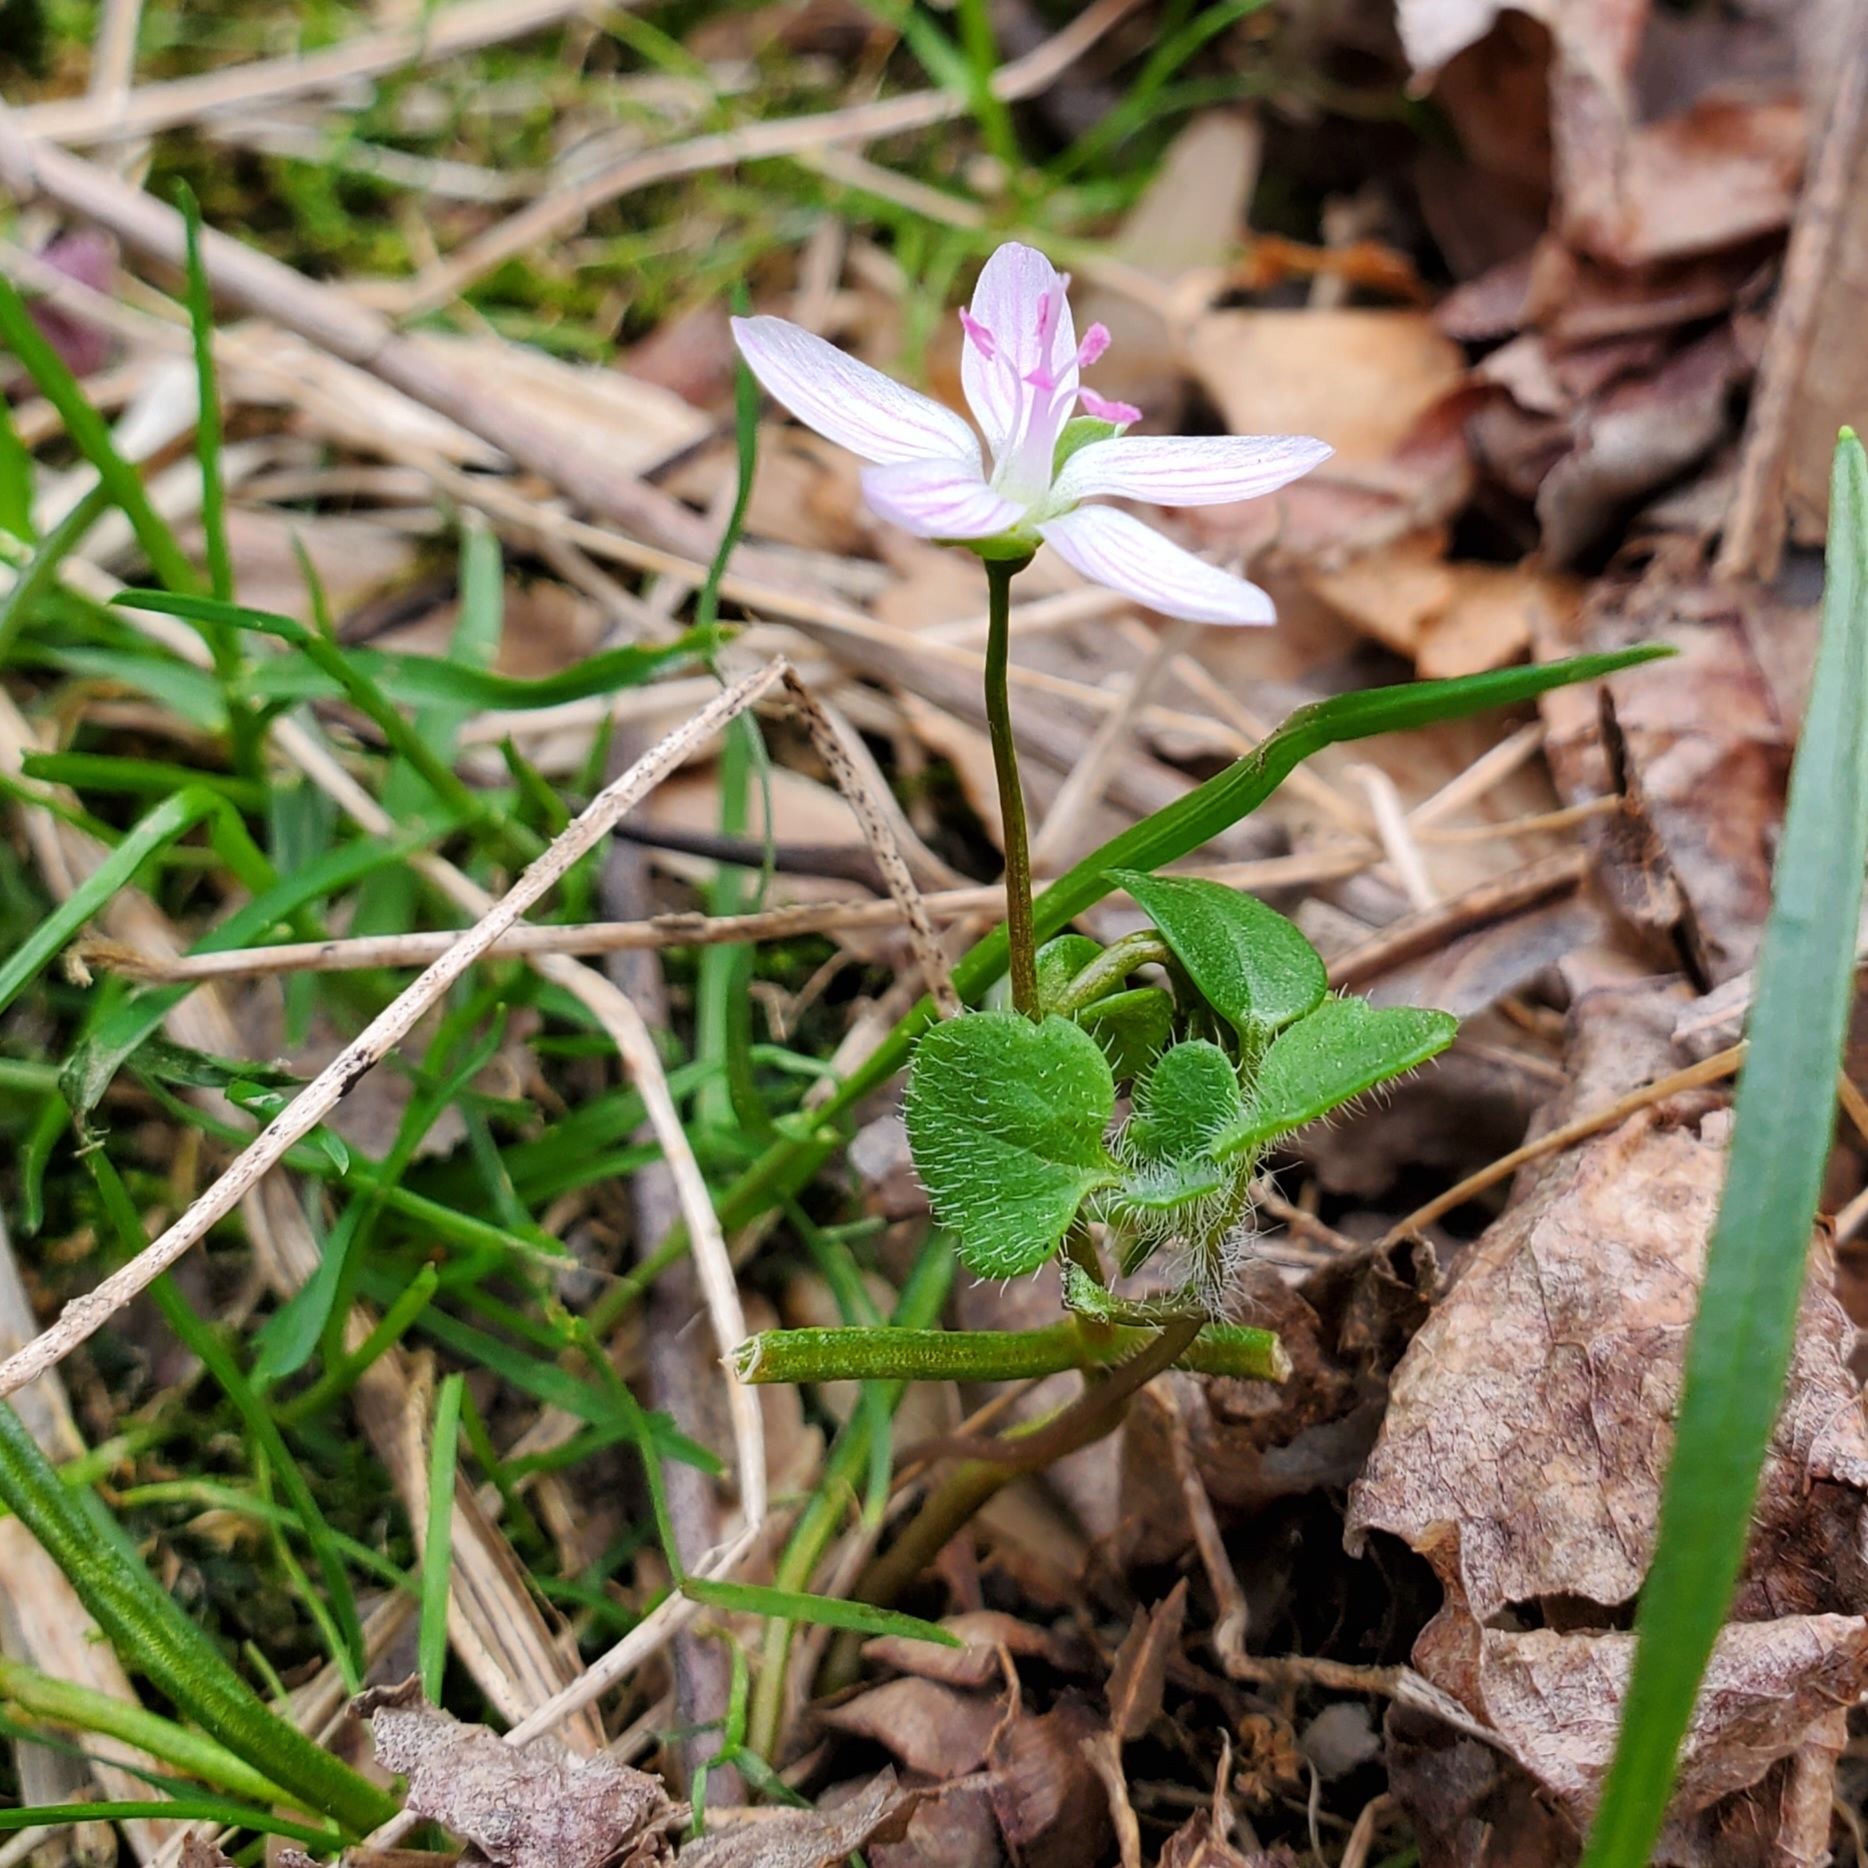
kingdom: Plantae
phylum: Tracheophyta
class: Magnoliopsida
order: Caryophyllales
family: Montiaceae
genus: Claytonia
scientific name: Claytonia virginica
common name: Virginia springbeauty
